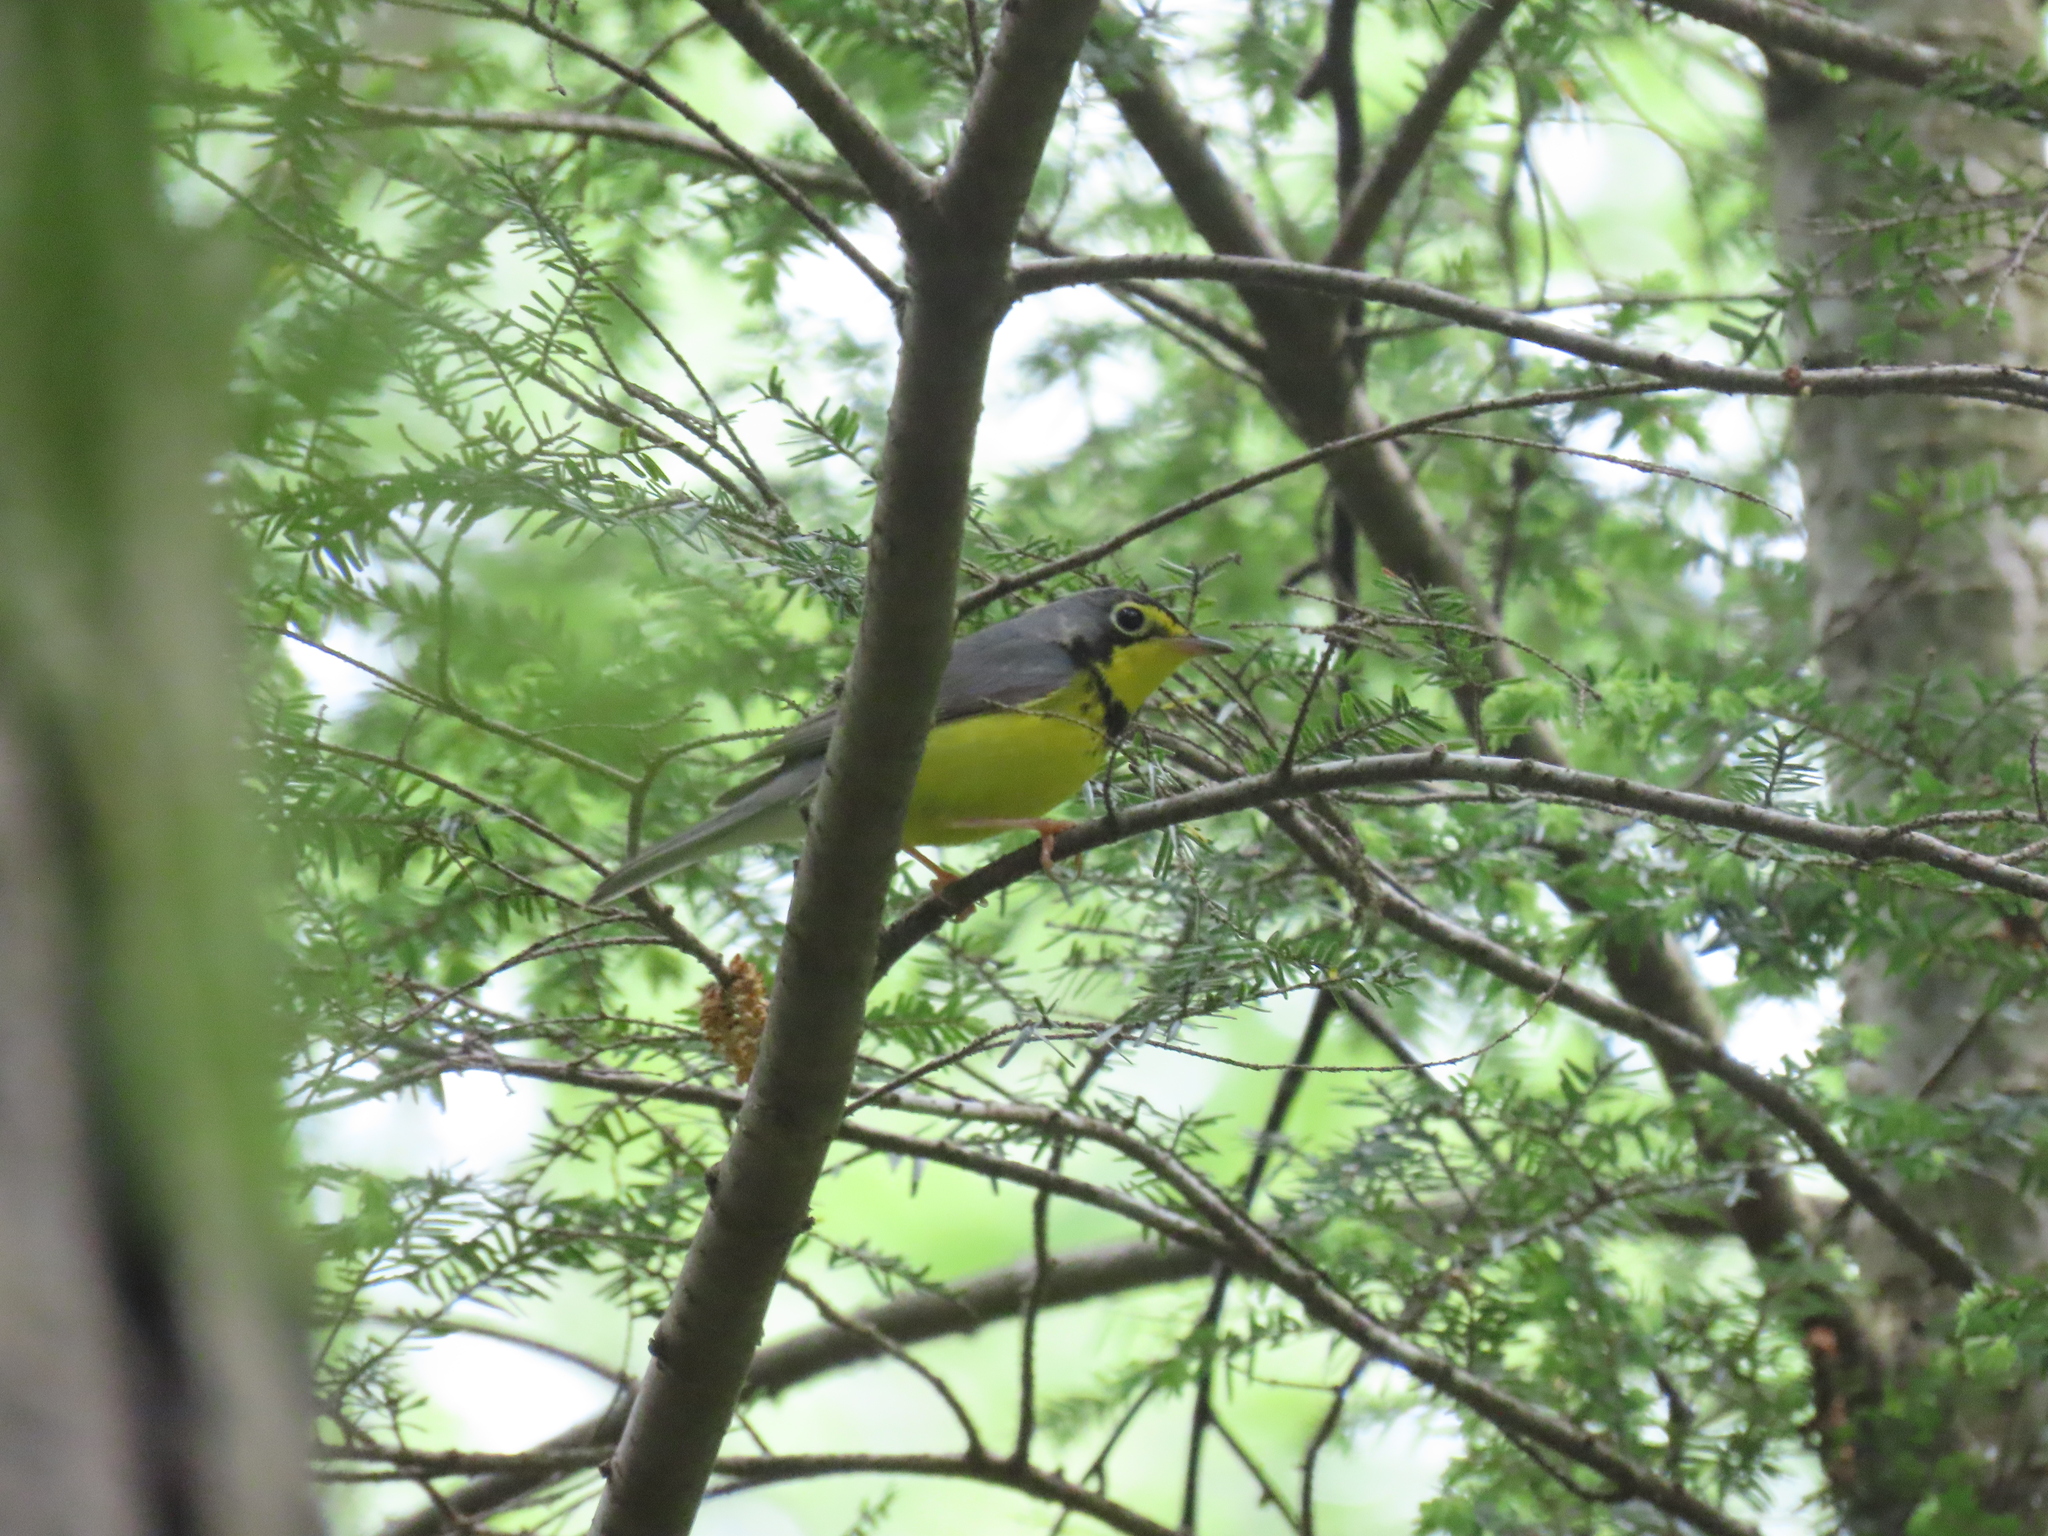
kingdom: Animalia
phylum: Chordata
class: Aves
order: Passeriformes
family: Parulidae
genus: Cardellina
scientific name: Cardellina canadensis
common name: Canada warbler
